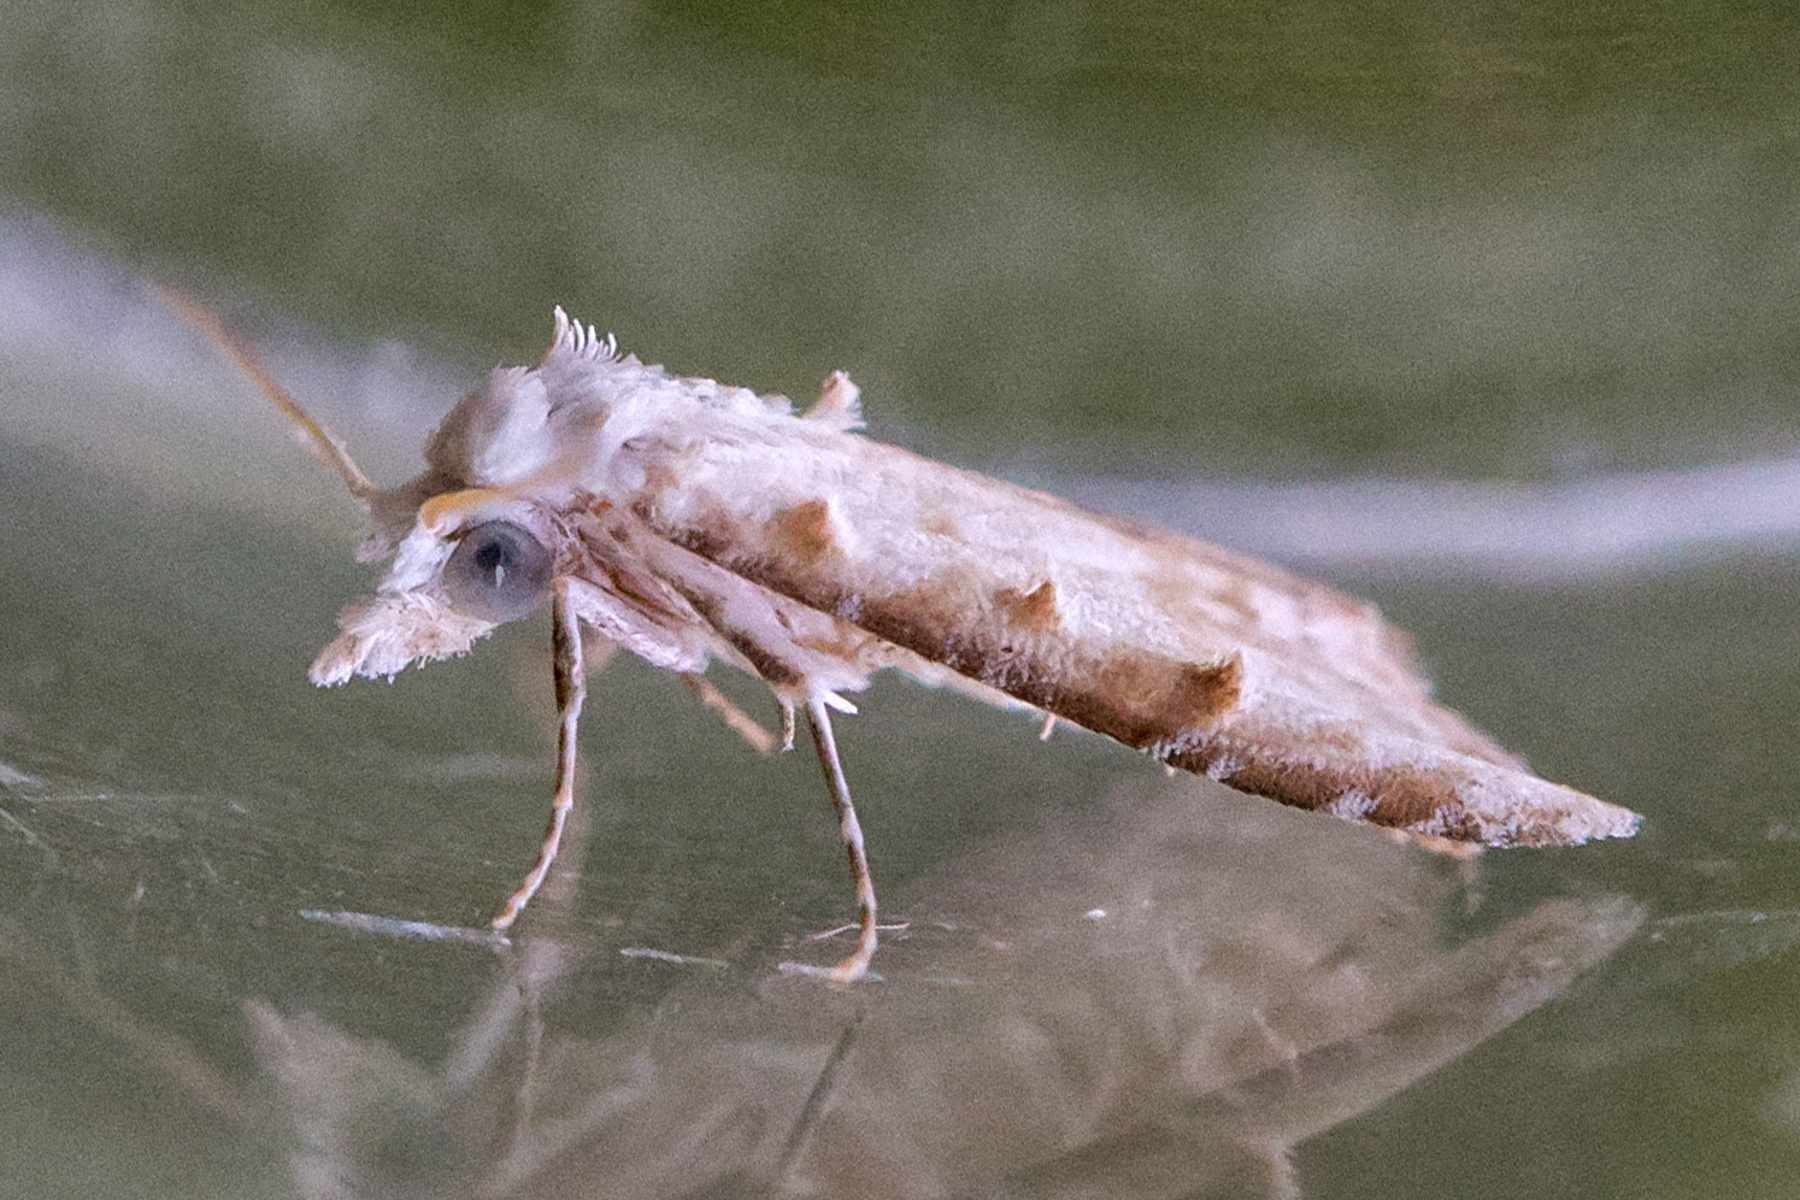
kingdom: Animalia
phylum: Arthropoda
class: Insecta
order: Lepidoptera
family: Nolidae
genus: Nola
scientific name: Nola cereella
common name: Sorghum webworm moth
